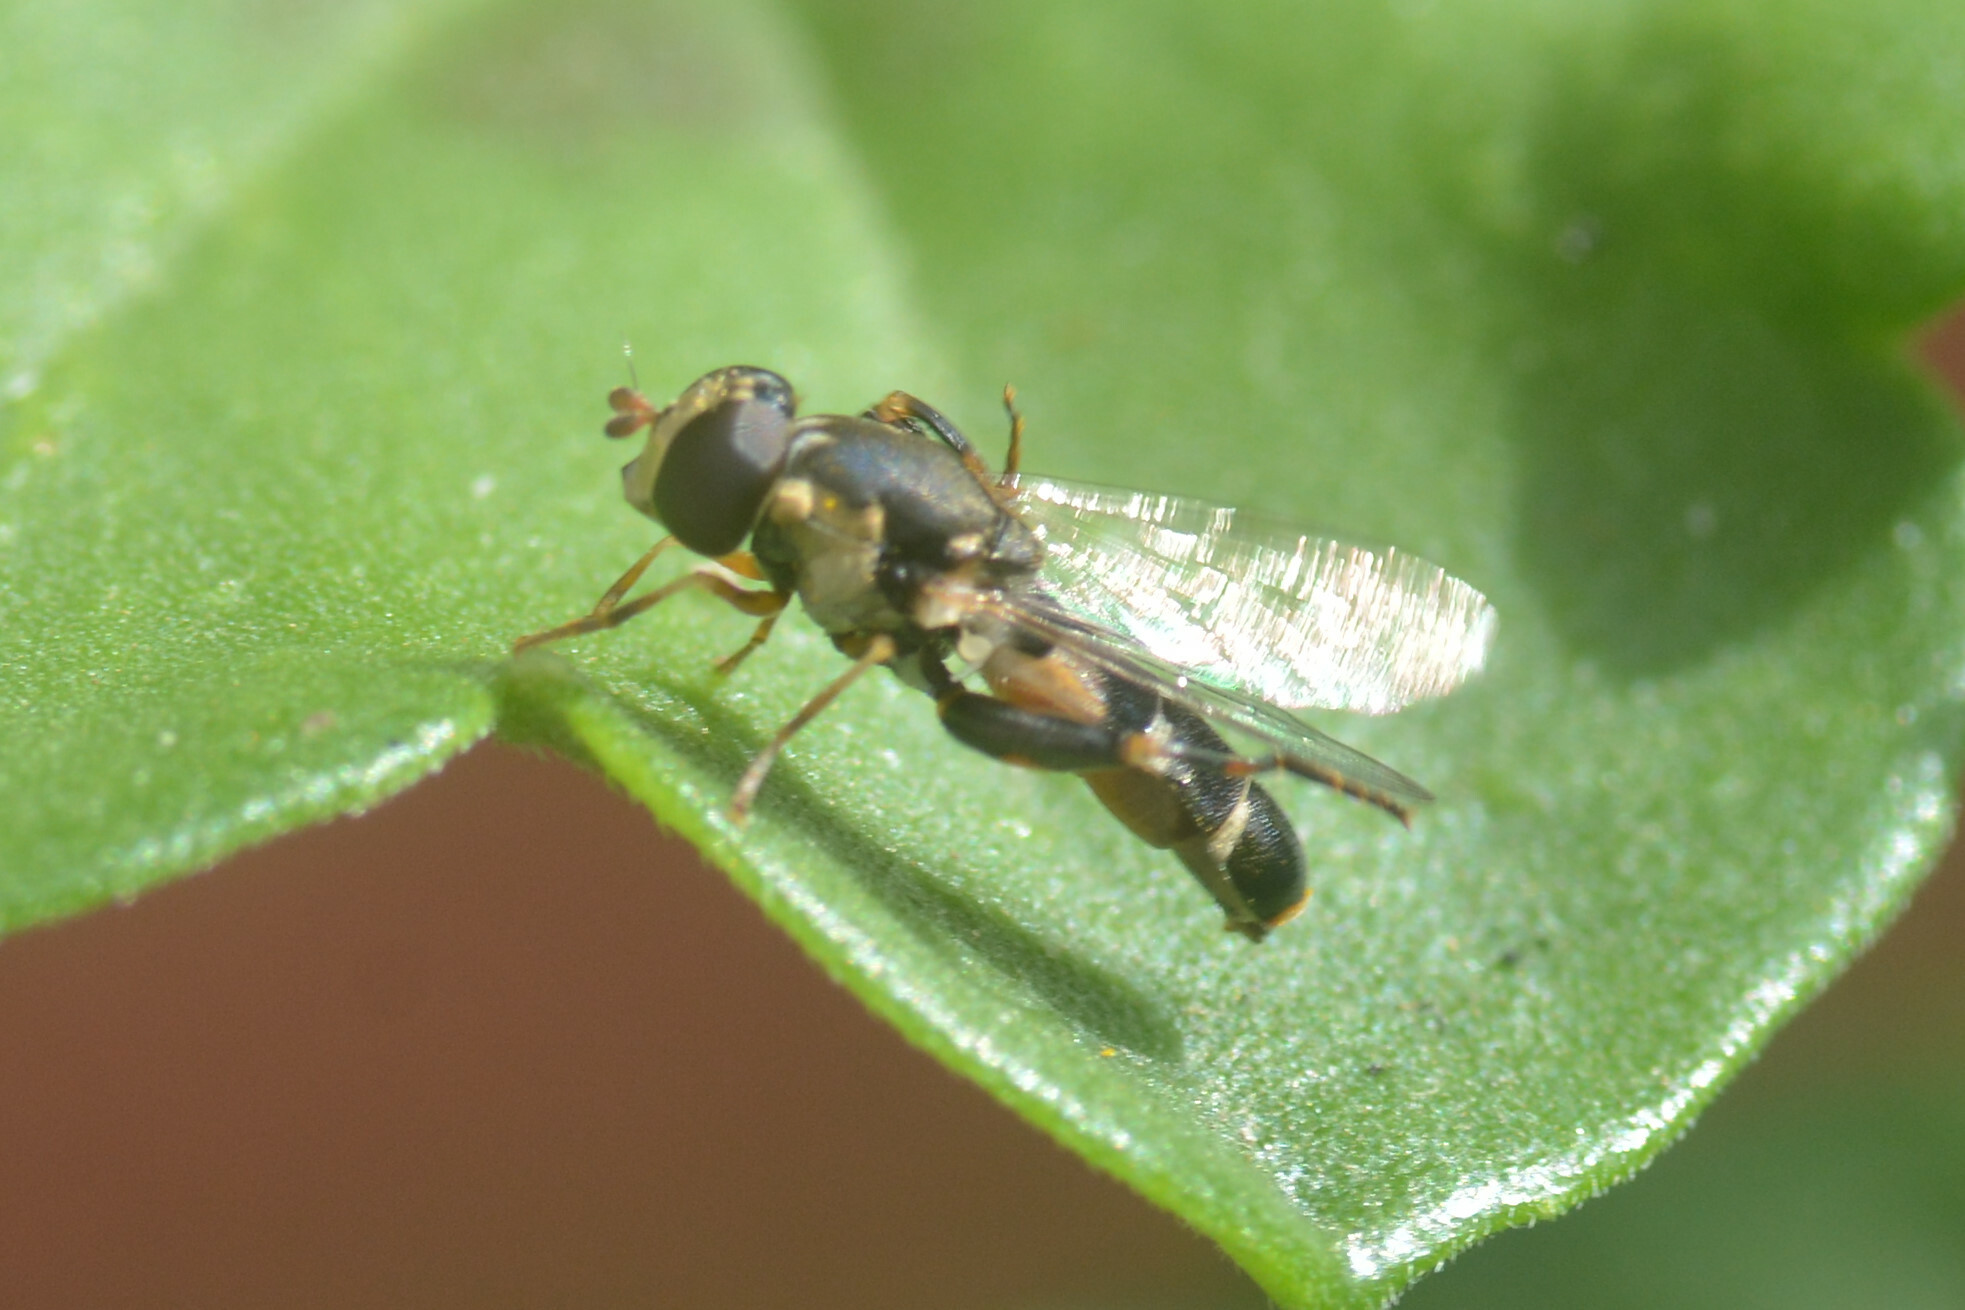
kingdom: Animalia
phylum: Arthropoda
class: Insecta
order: Diptera
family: Syrphidae
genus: Syritta
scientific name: Syritta pipiens
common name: Hover fly
